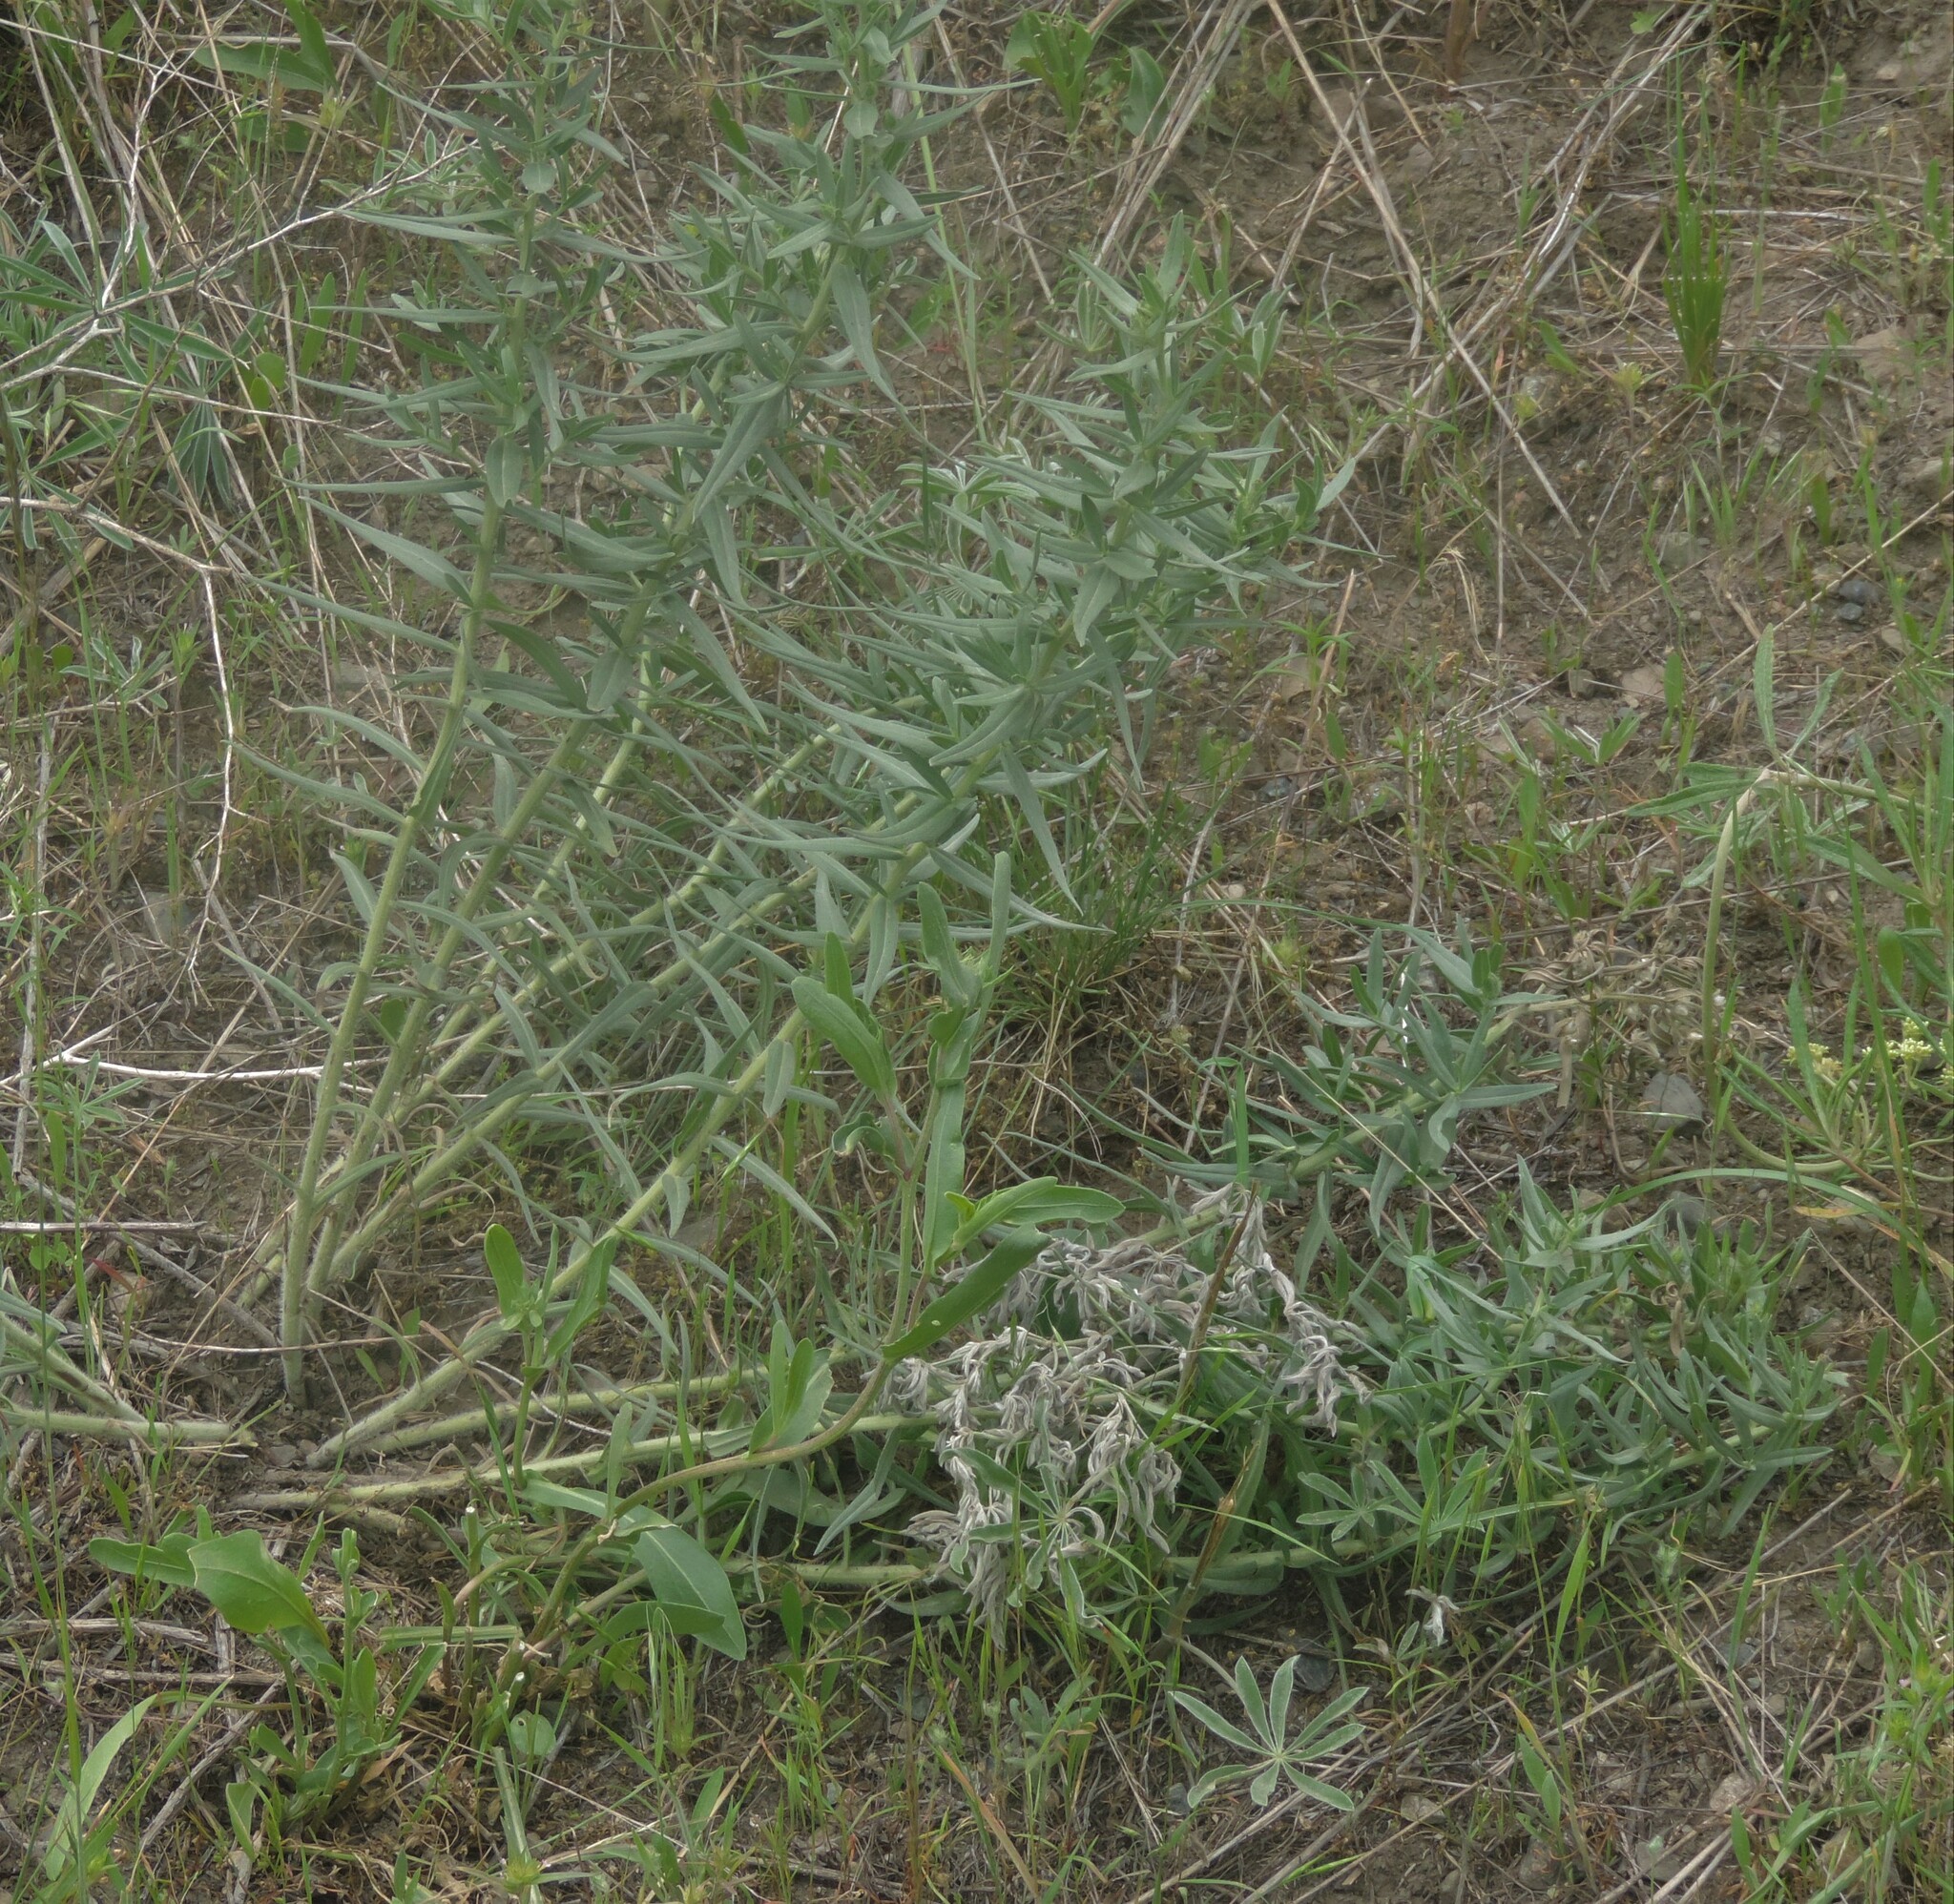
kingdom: Plantae
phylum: Tracheophyta
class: Magnoliopsida
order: Boraginales
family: Boraginaceae
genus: Lithospermum
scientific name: Lithospermum ruderale
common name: Western gromwell
